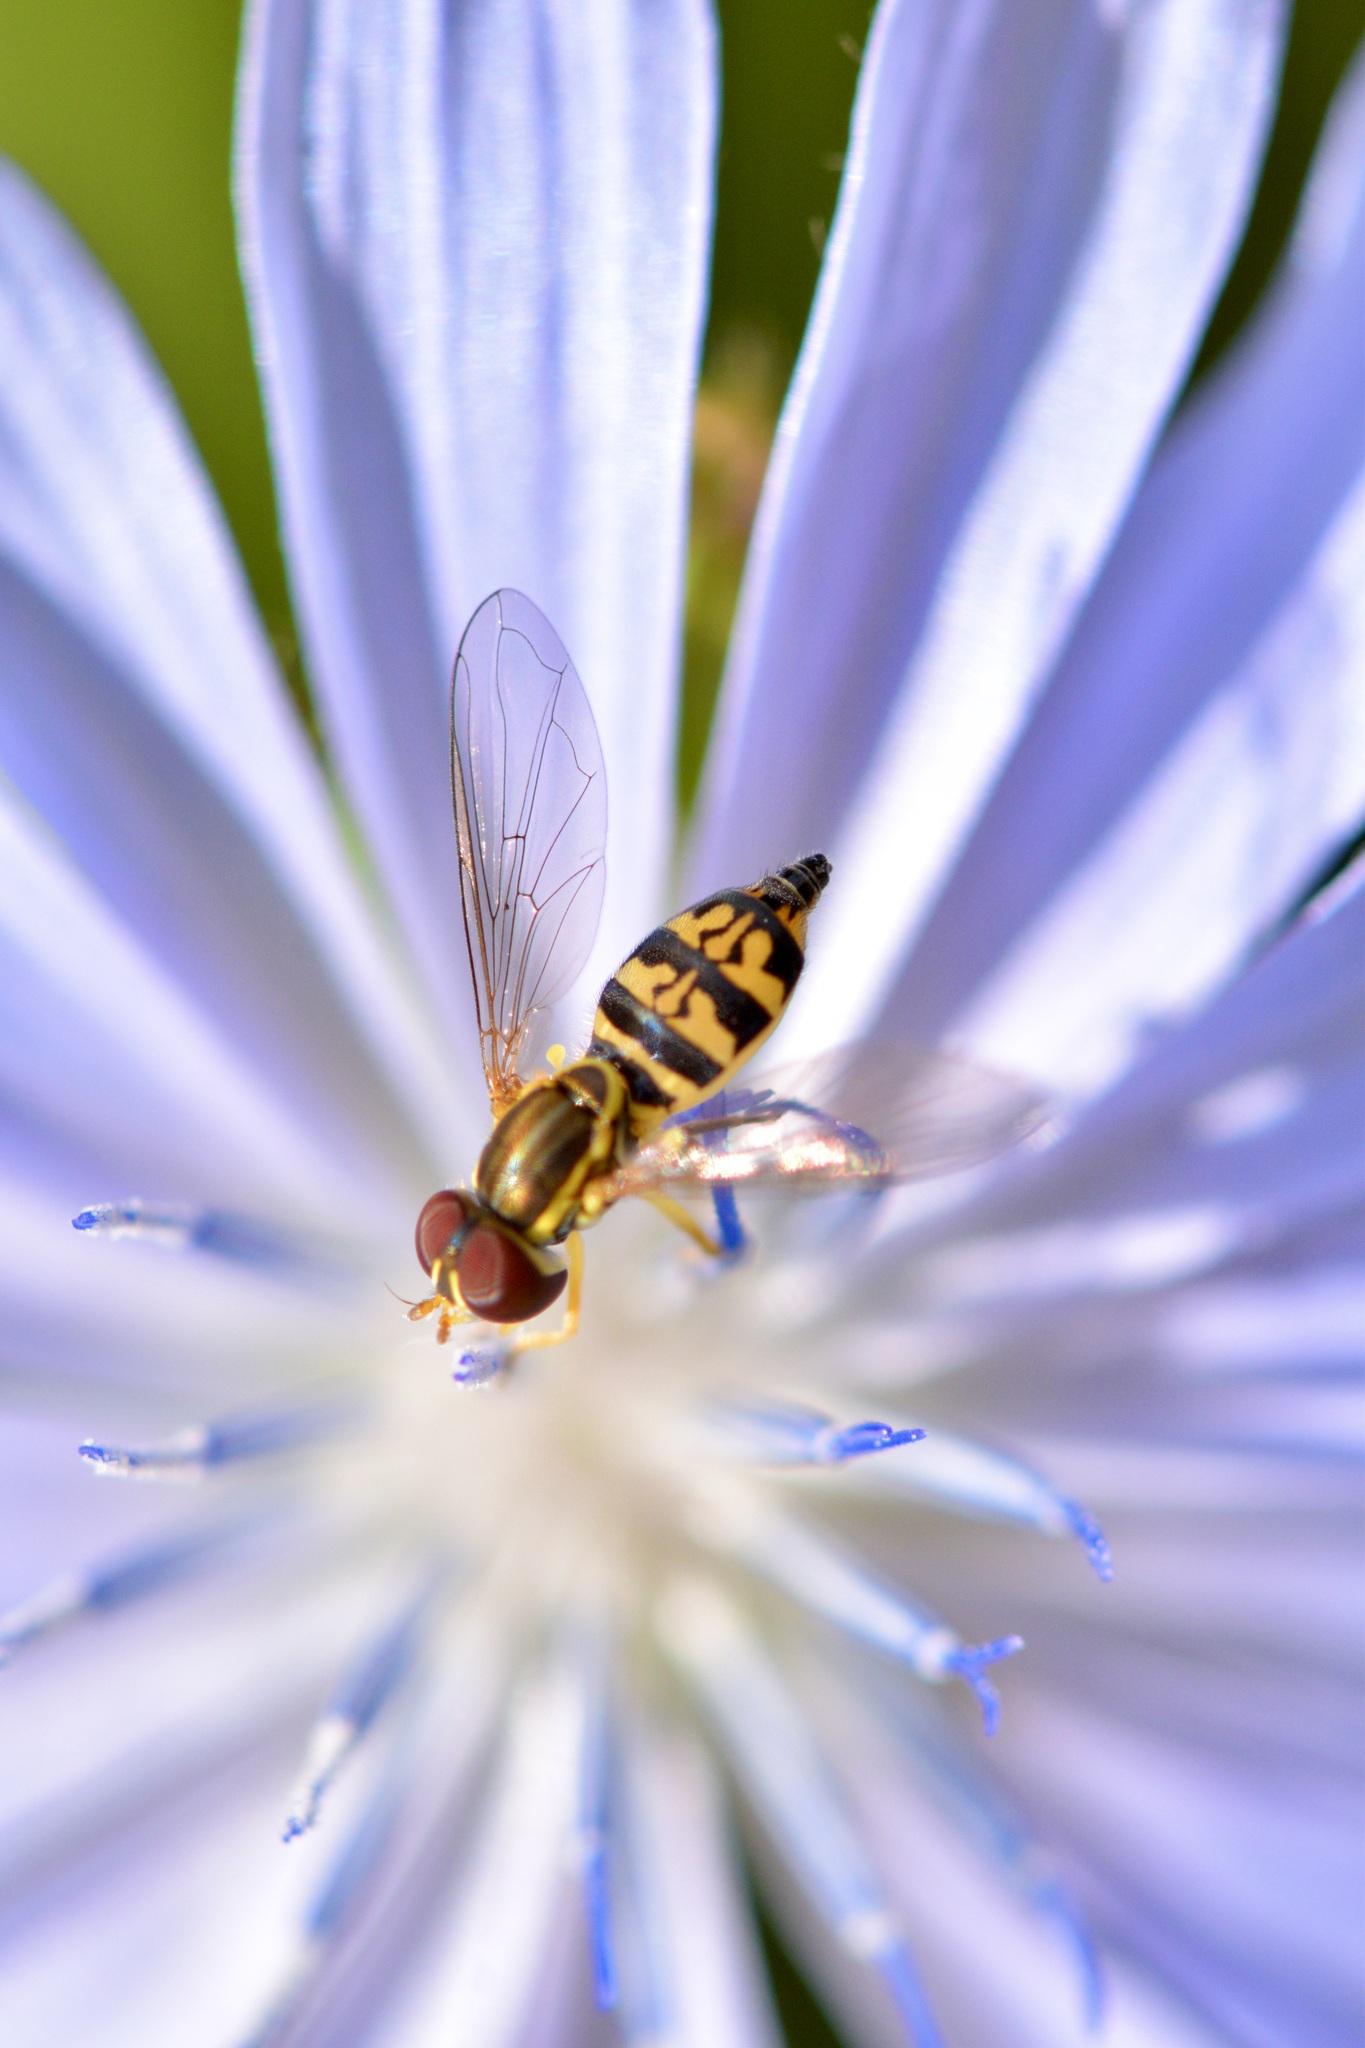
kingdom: Animalia
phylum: Arthropoda
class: Insecta
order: Diptera
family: Syrphidae
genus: Toxomerus
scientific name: Toxomerus geminatus
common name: Eastern calligrapher
